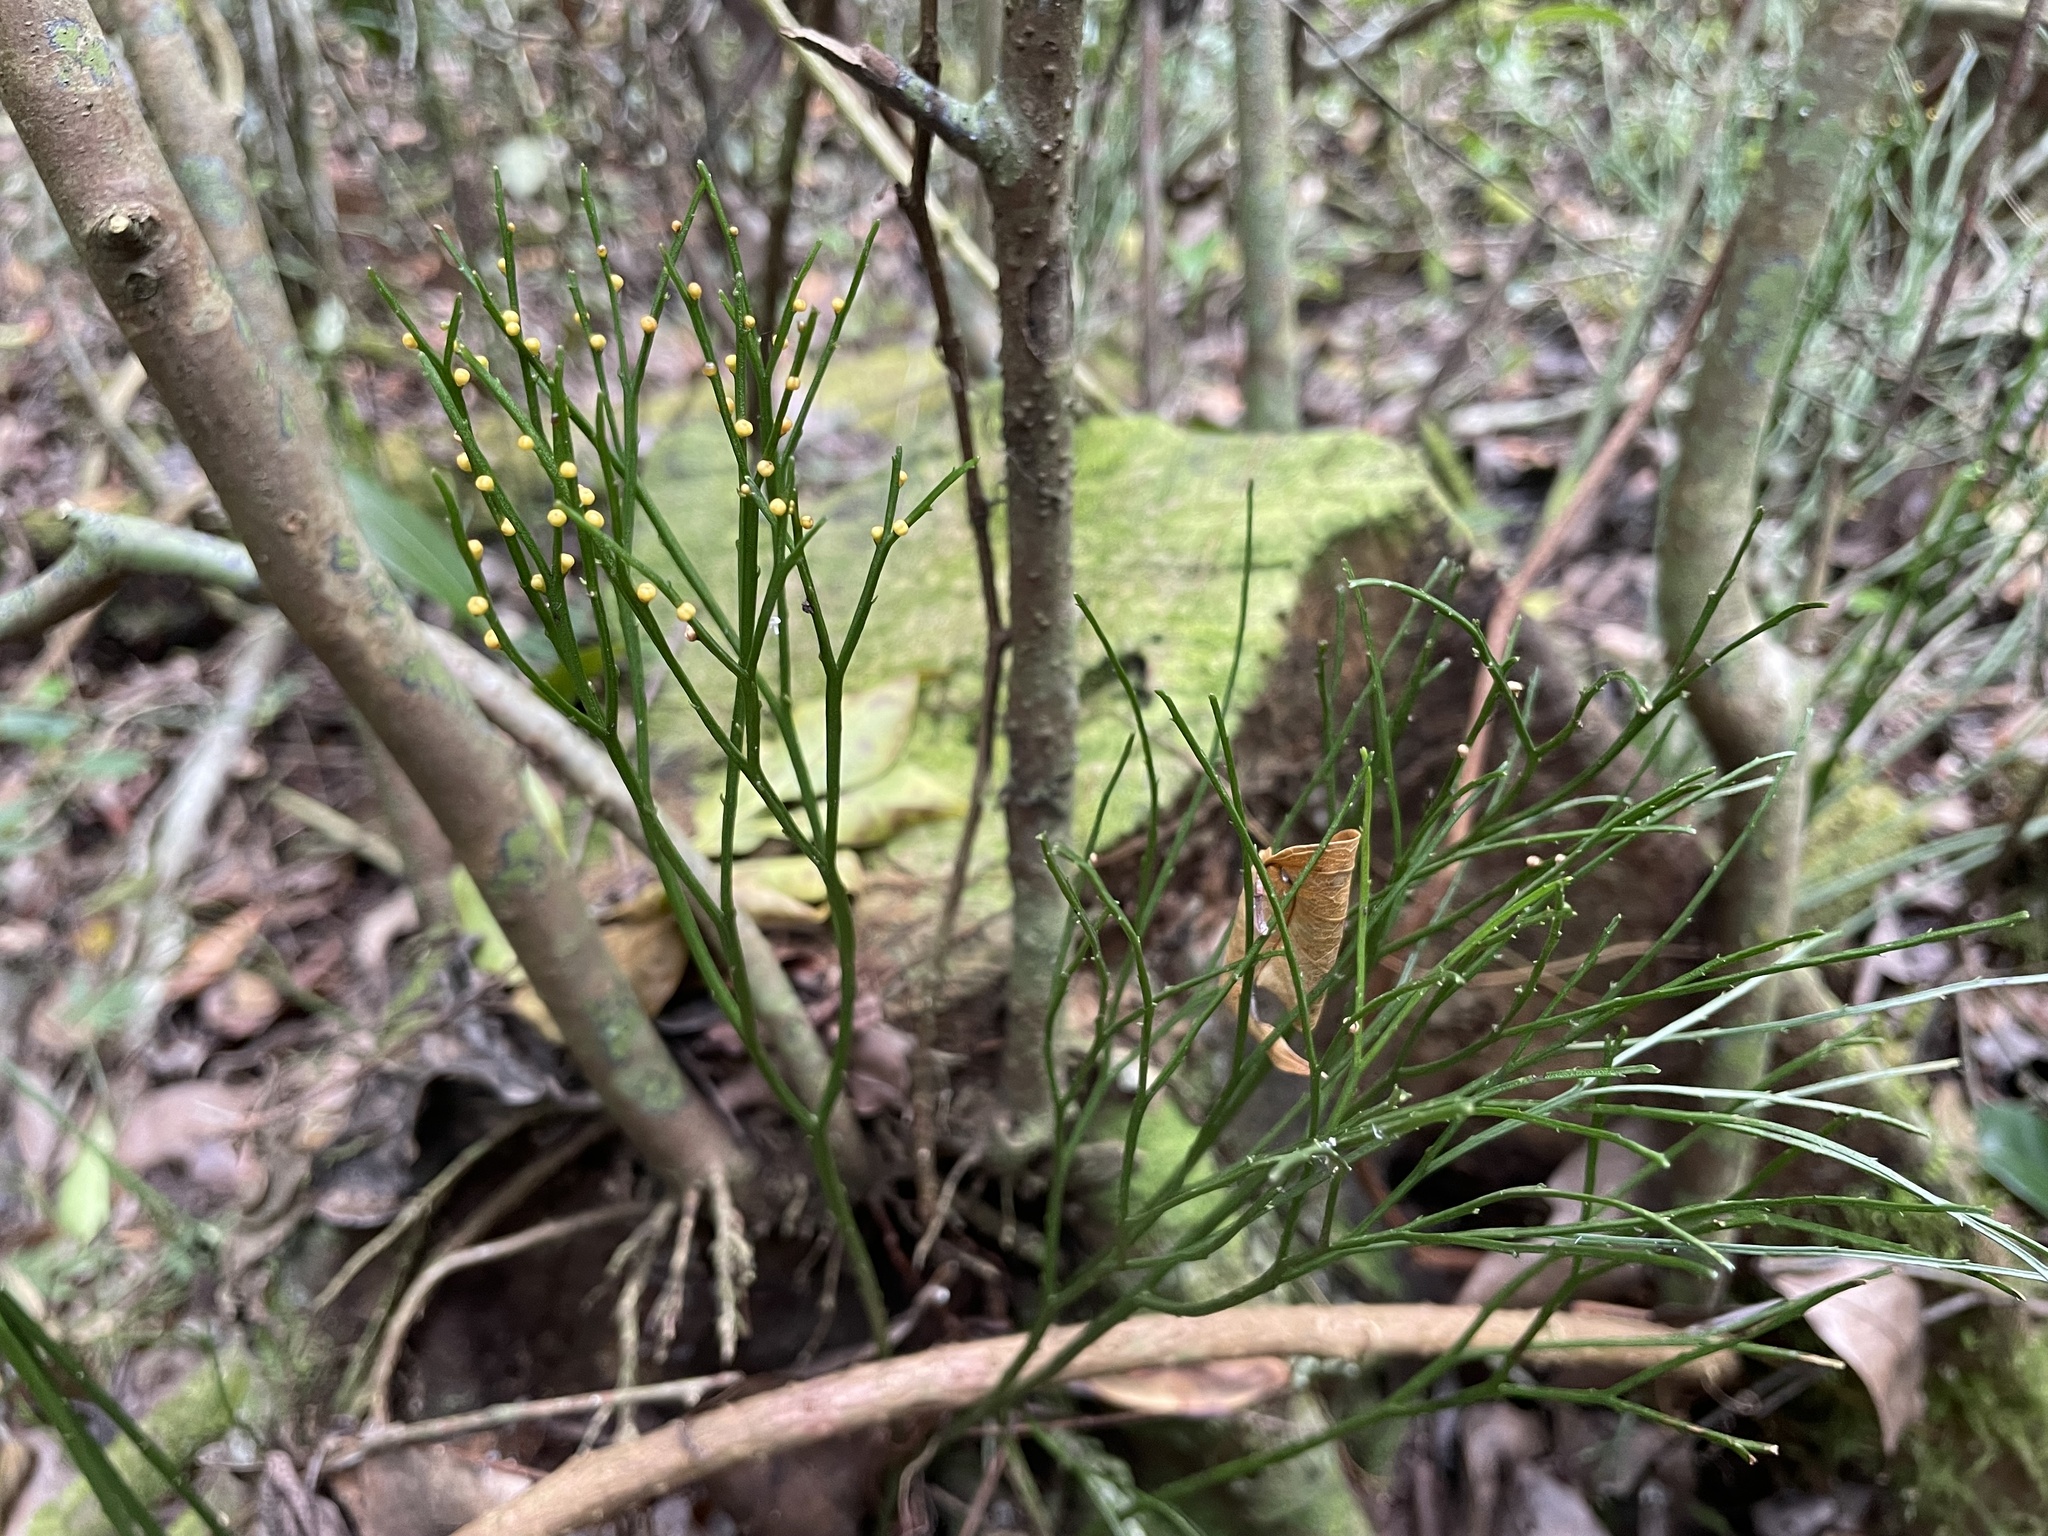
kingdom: Plantae
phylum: Tracheophyta
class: Polypodiopsida
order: Psilotales
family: Psilotaceae
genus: Psilotum
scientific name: Psilotum nudum
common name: Skeleton fork fern
